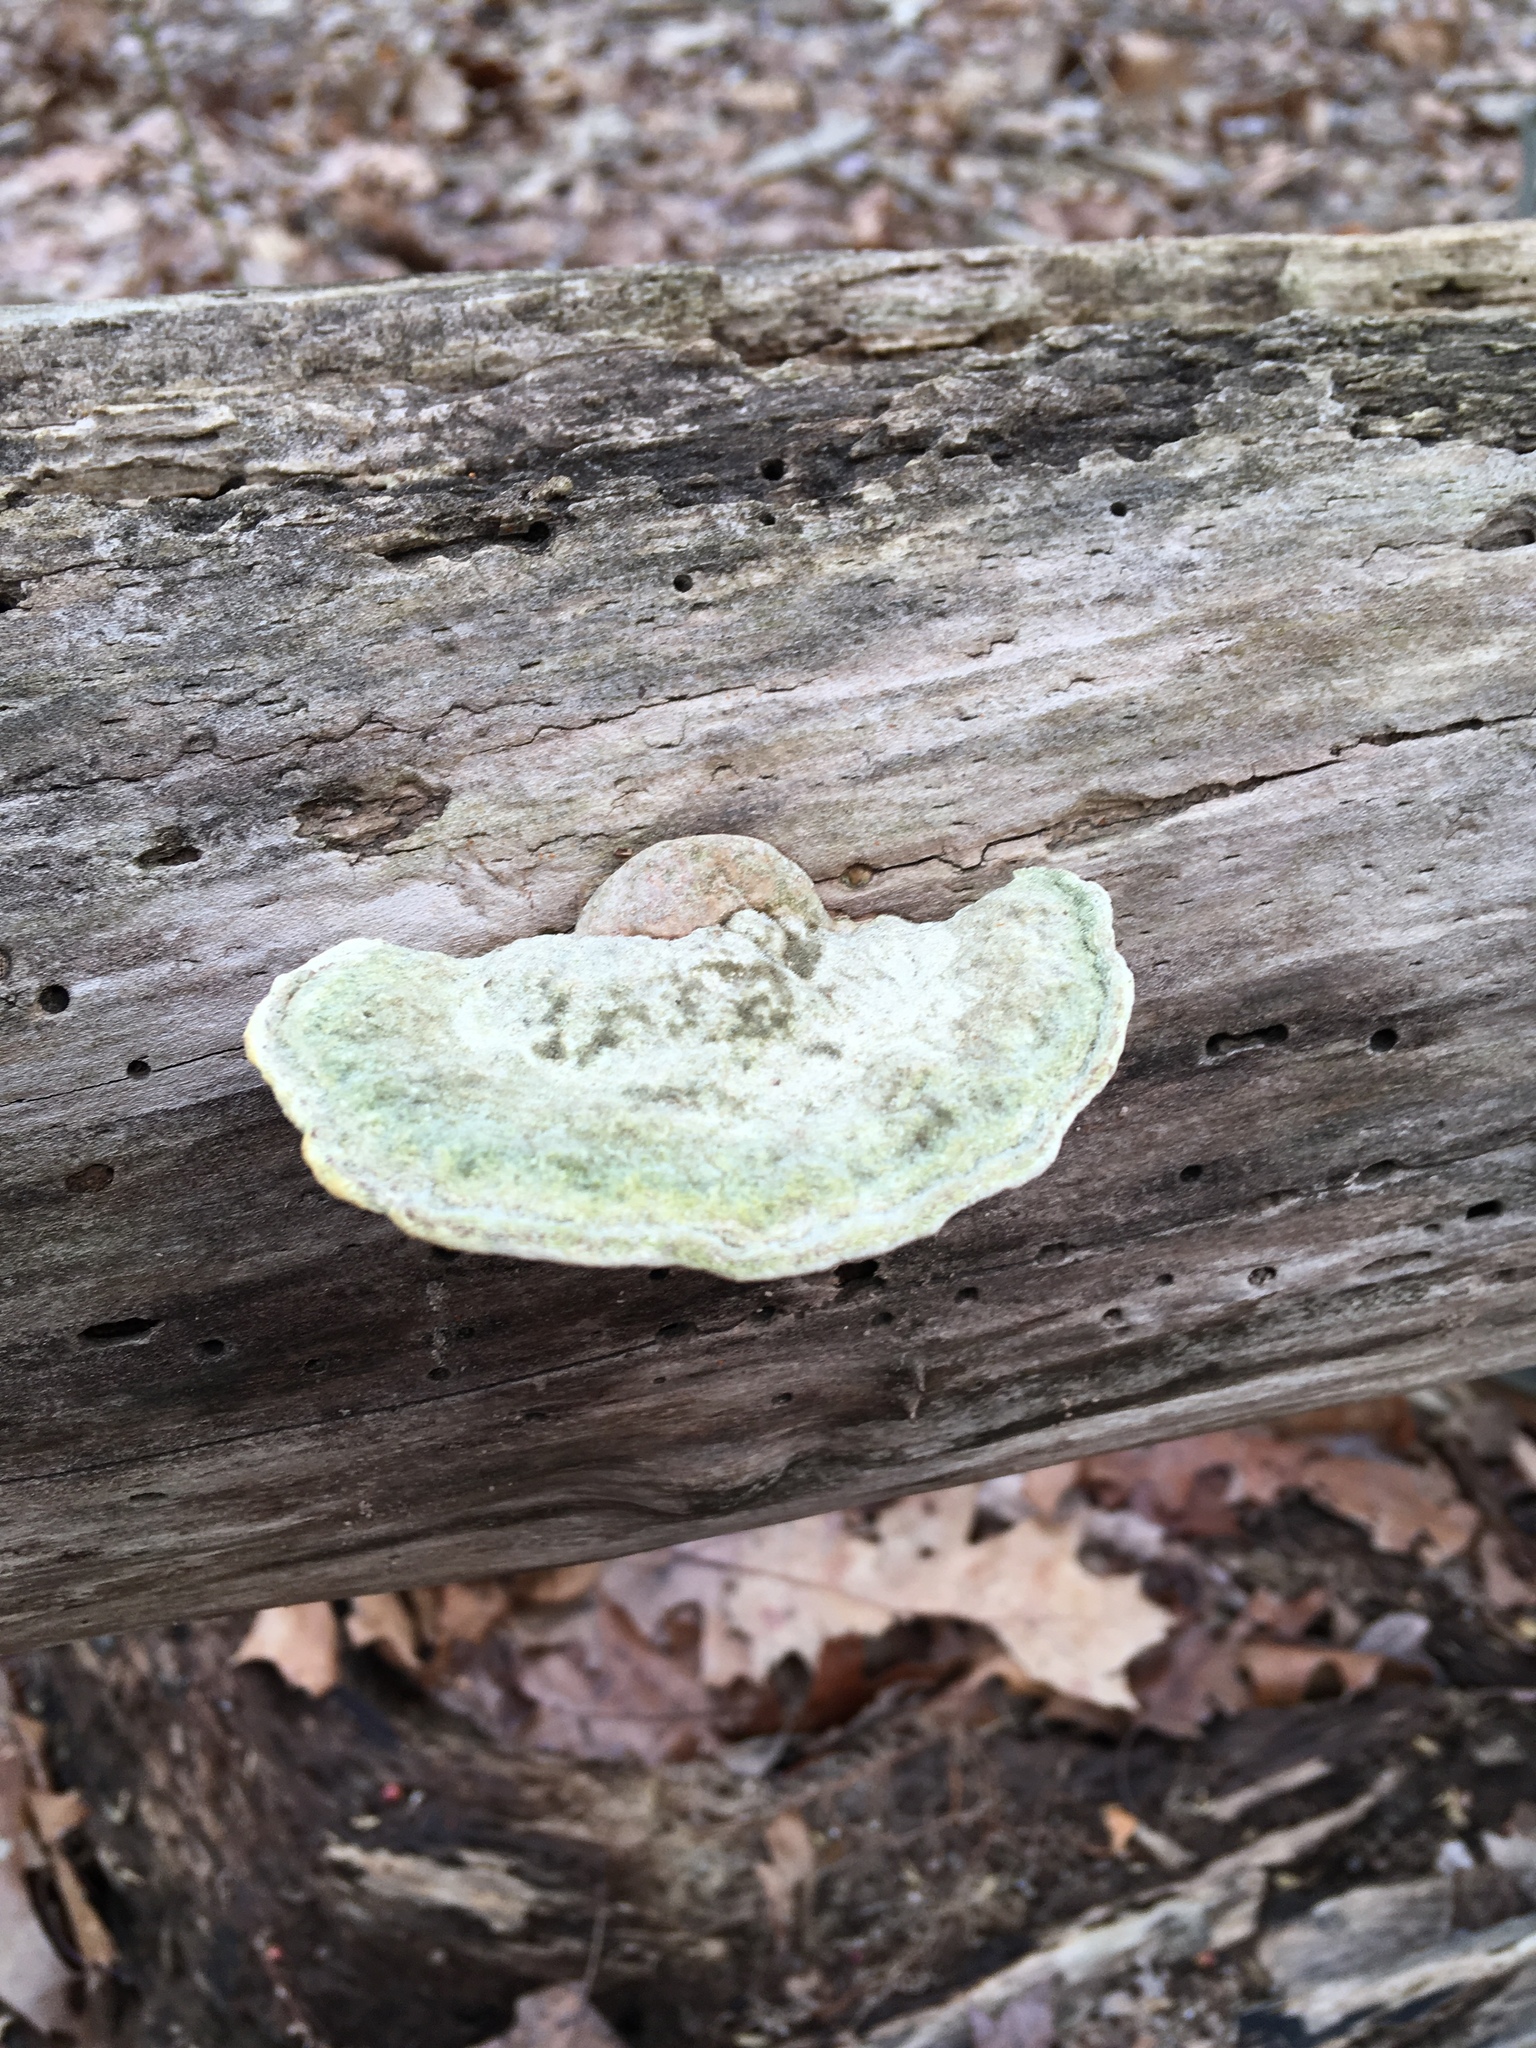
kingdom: Fungi
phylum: Basidiomycota
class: Agaricomycetes
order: Polyporales
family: Polyporaceae
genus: Trametes
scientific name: Trametes gibbosa
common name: Lumpy bracket
